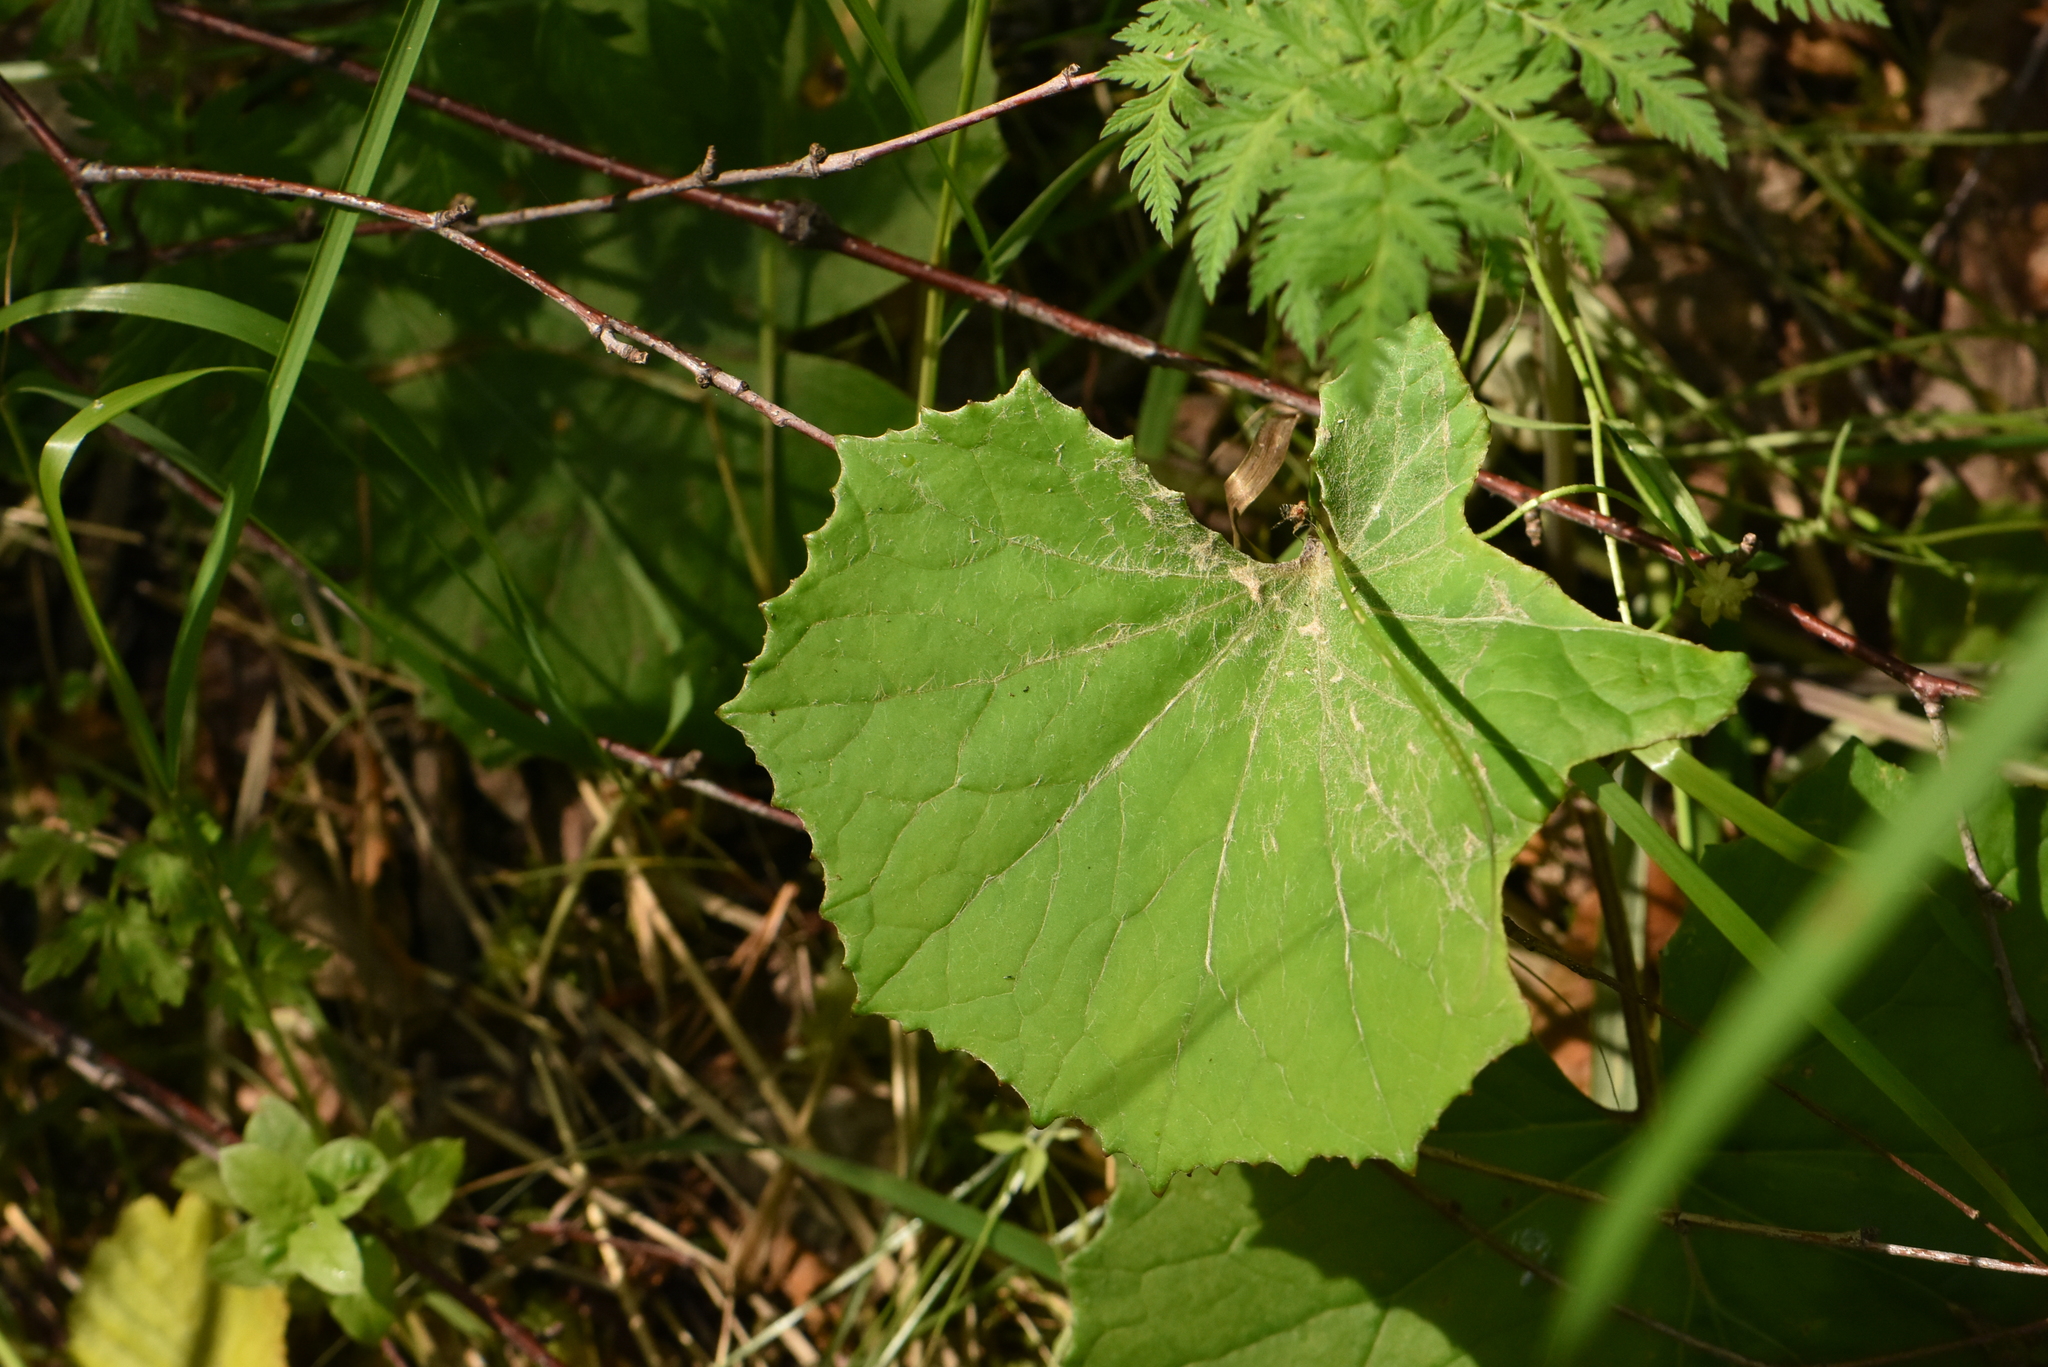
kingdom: Plantae
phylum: Tracheophyta
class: Magnoliopsida
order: Asterales
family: Asteraceae
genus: Tussilago
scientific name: Tussilago farfara
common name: Coltsfoot
